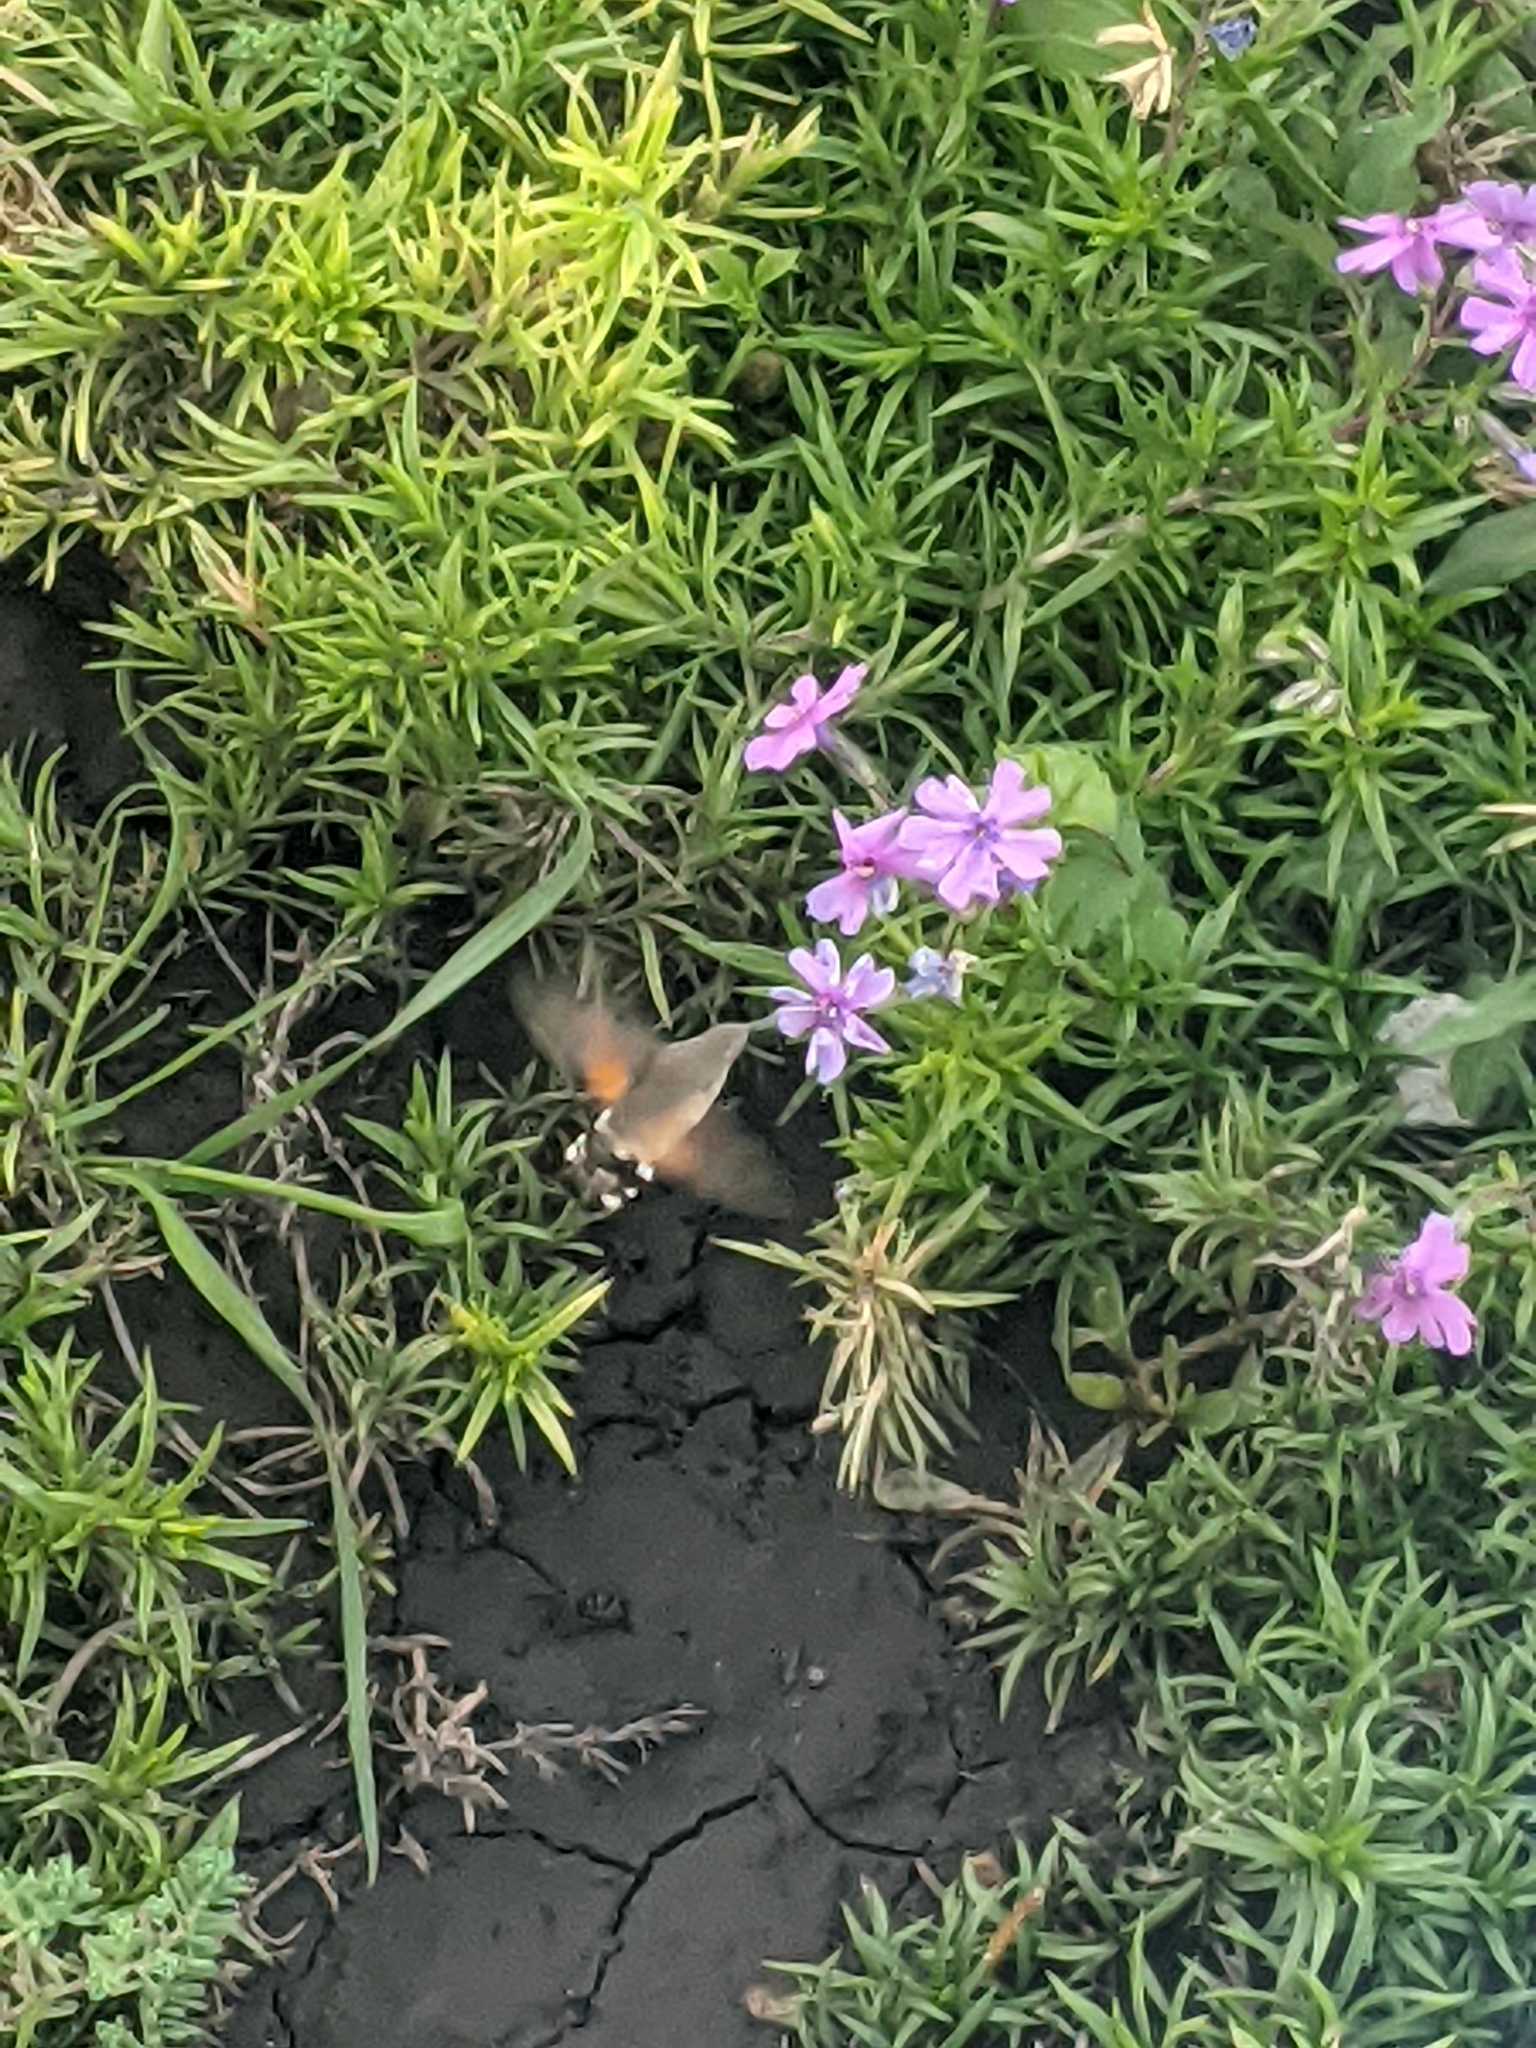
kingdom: Animalia
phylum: Arthropoda
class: Insecta
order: Lepidoptera
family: Sphingidae
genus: Macroglossum
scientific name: Macroglossum stellatarum
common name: Humming-bird hawk-moth
